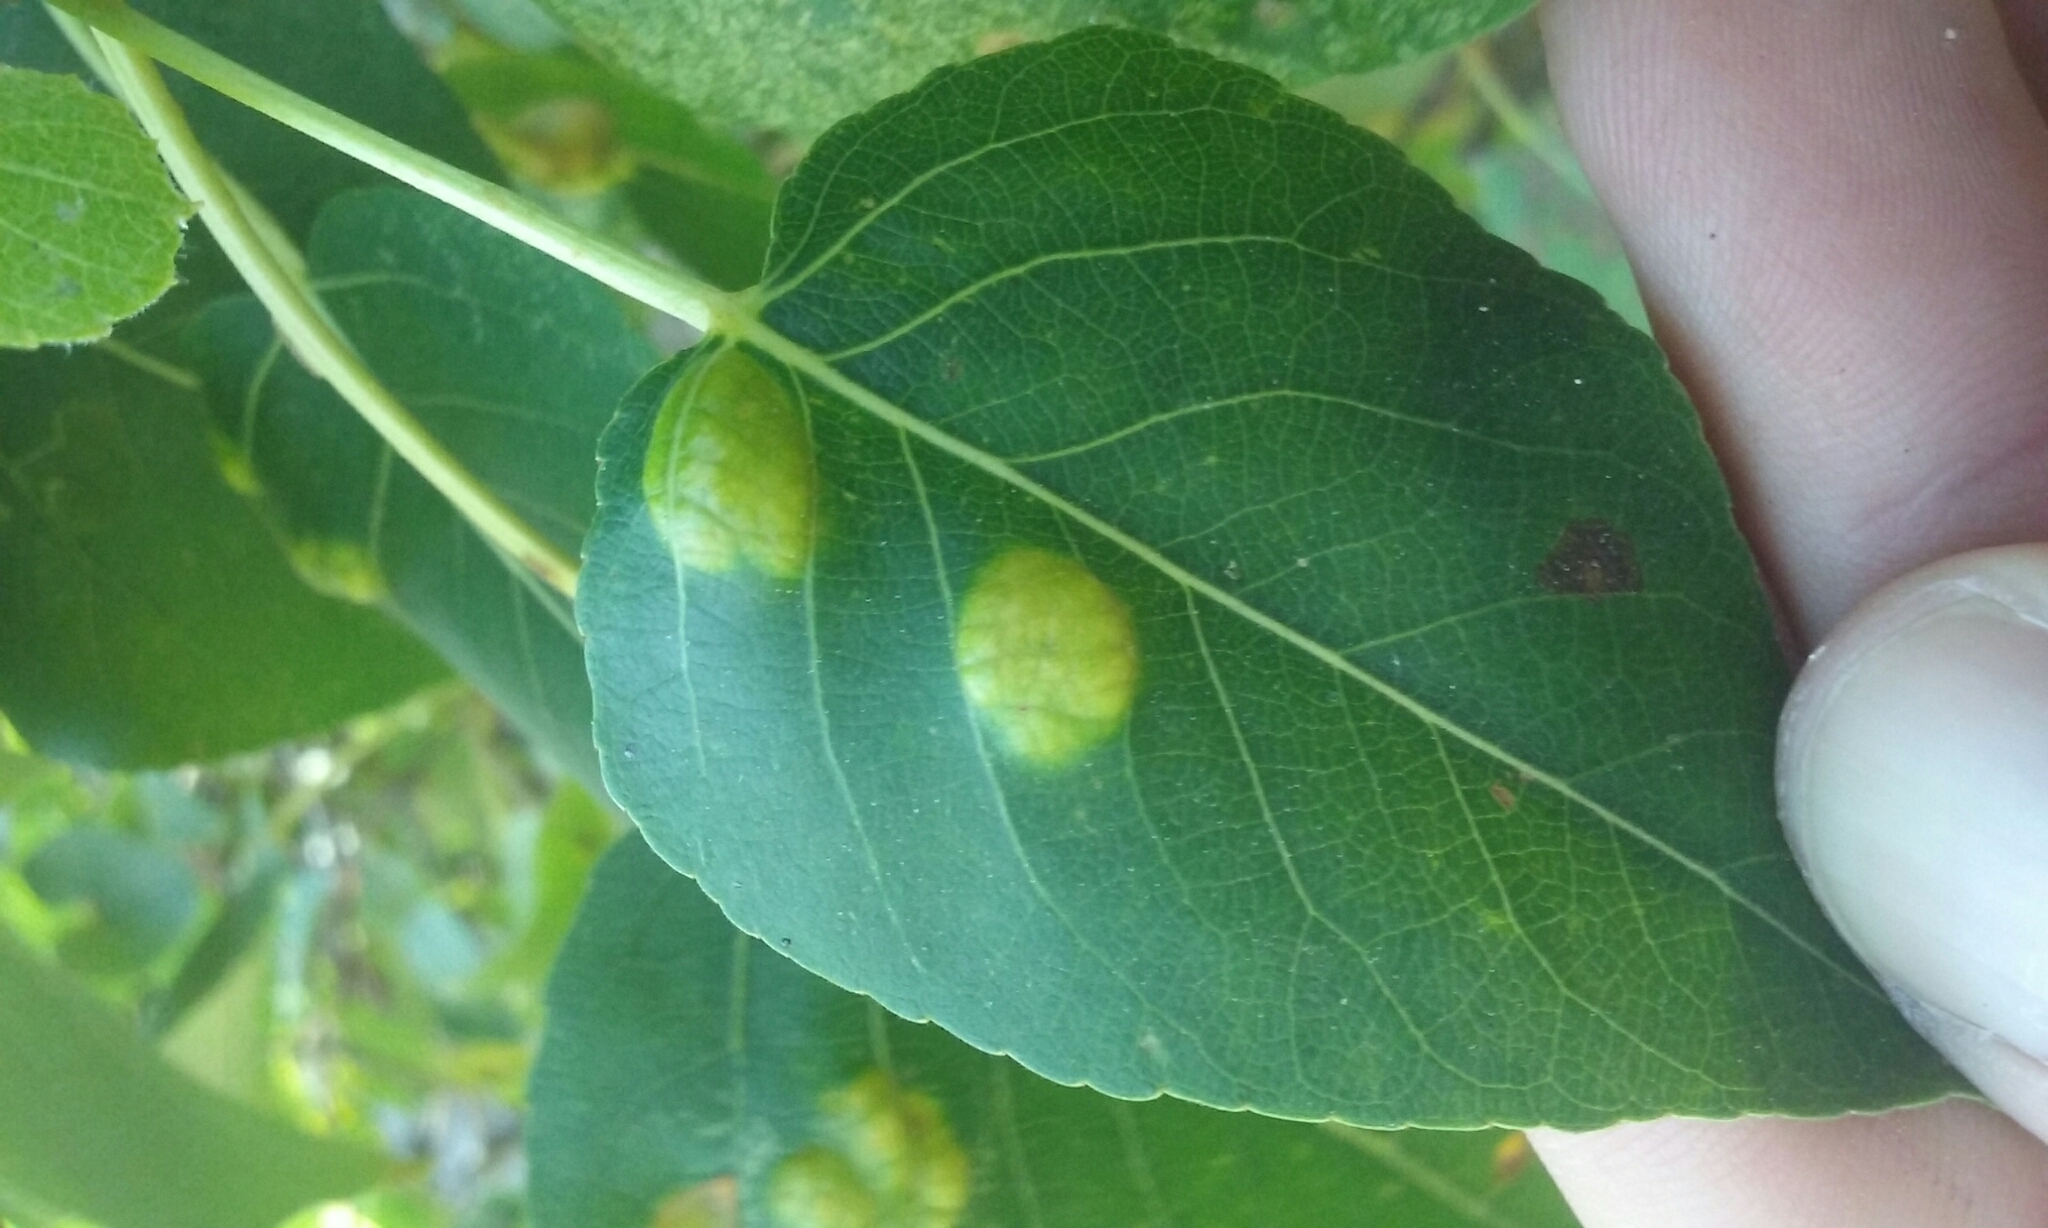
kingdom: Fungi
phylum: Ascomycota
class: Taphrinomycetes
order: Taphrinales
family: Taphrinaceae
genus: Taphrina
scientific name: Taphrina populi-salicis
